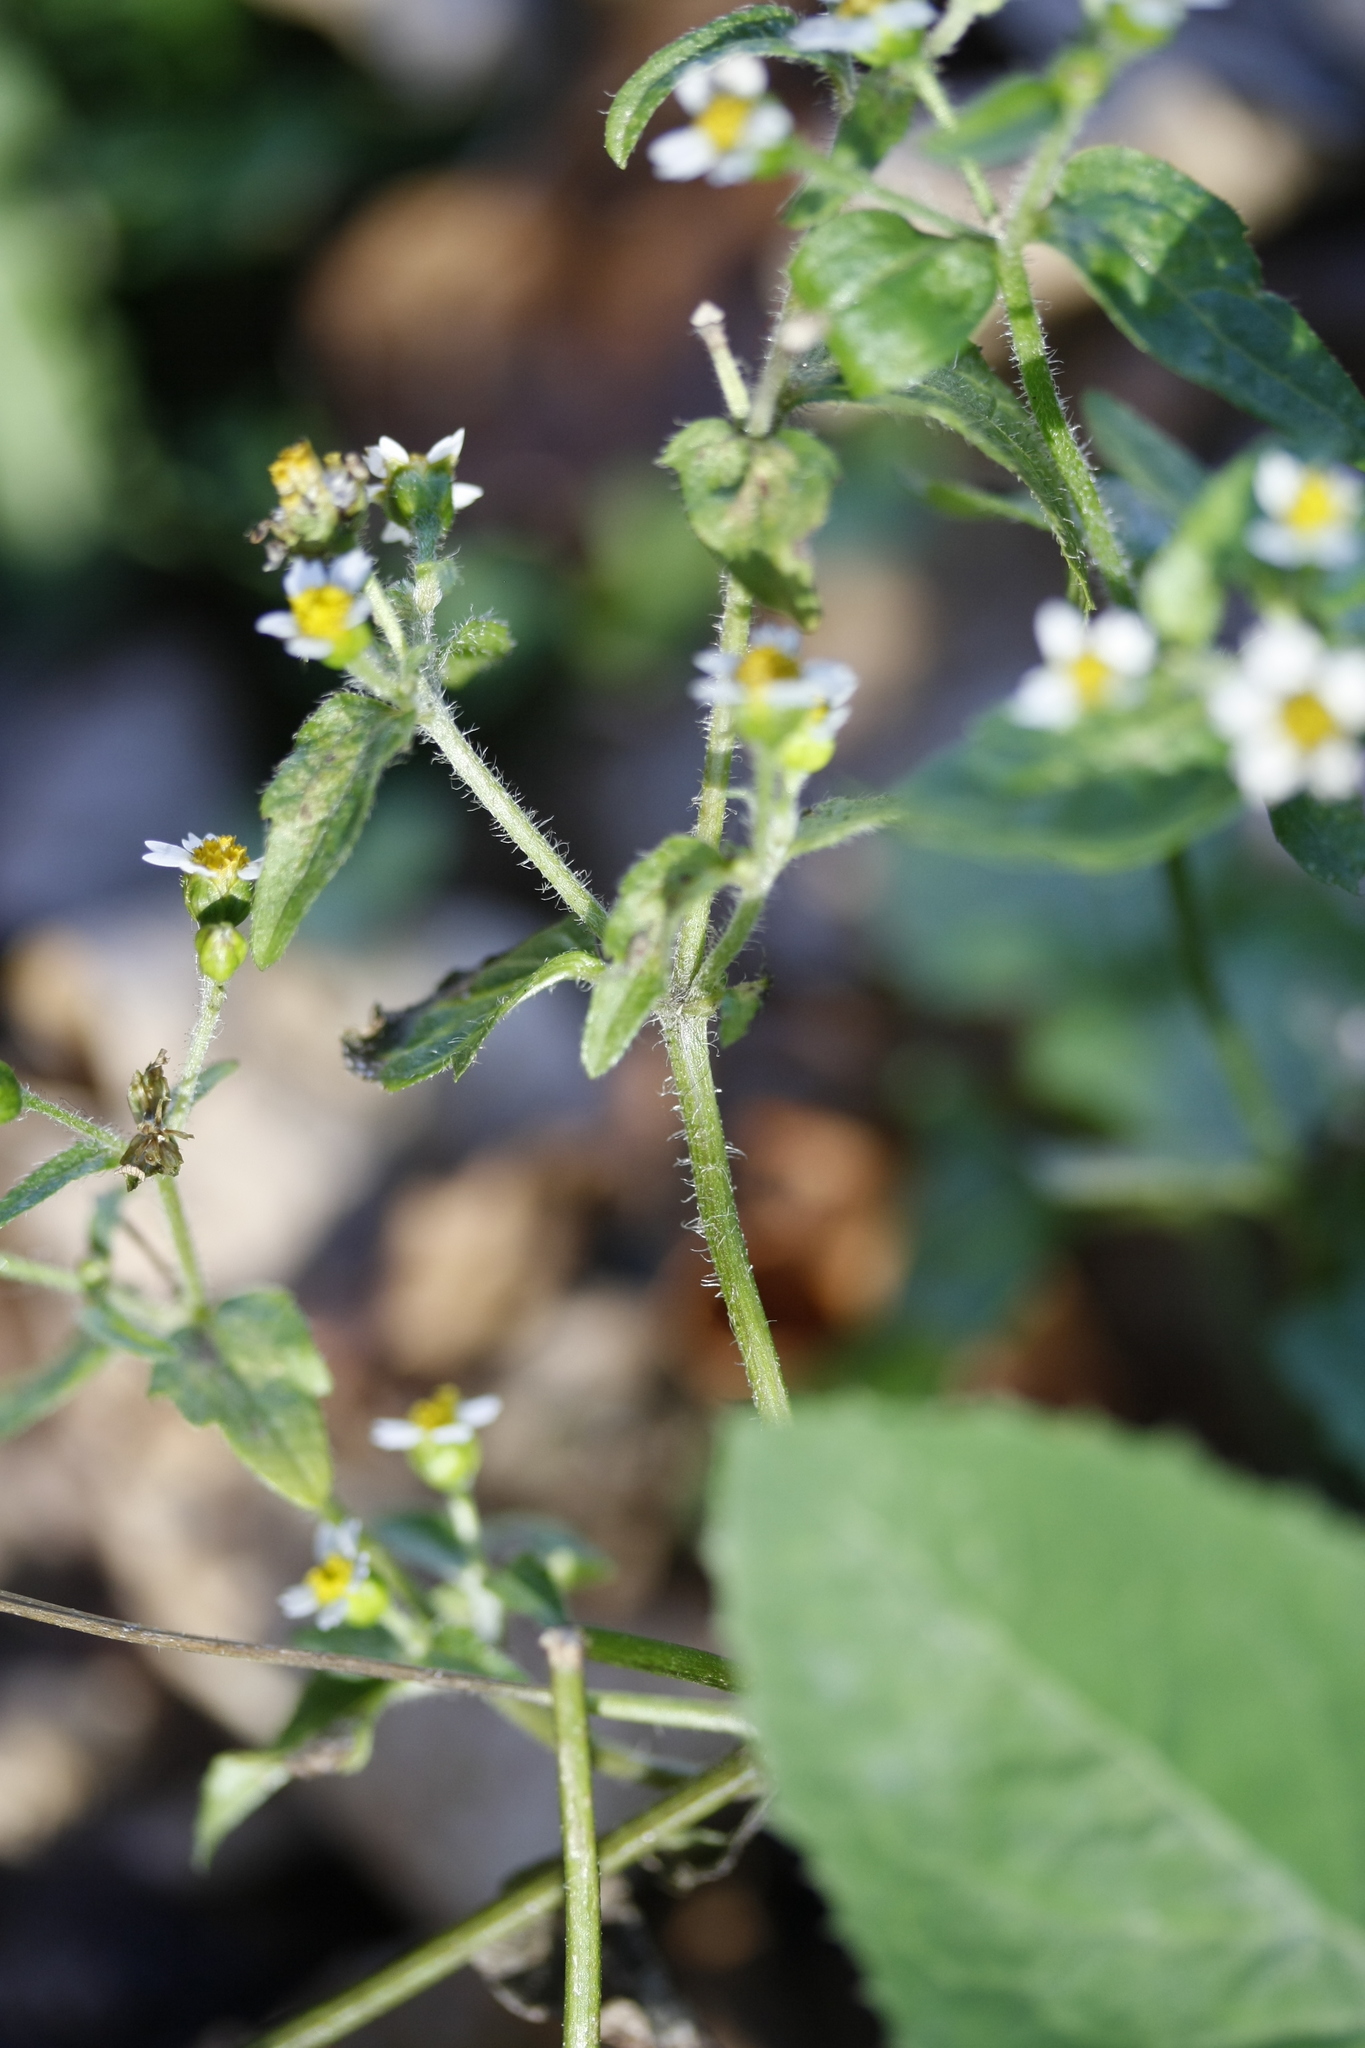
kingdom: Plantae
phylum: Tracheophyta
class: Magnoliopsida
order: Asterales
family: Asteraceae
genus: Galinsoga
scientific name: Galinsoga quadriradiata
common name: Shaggy soldier
